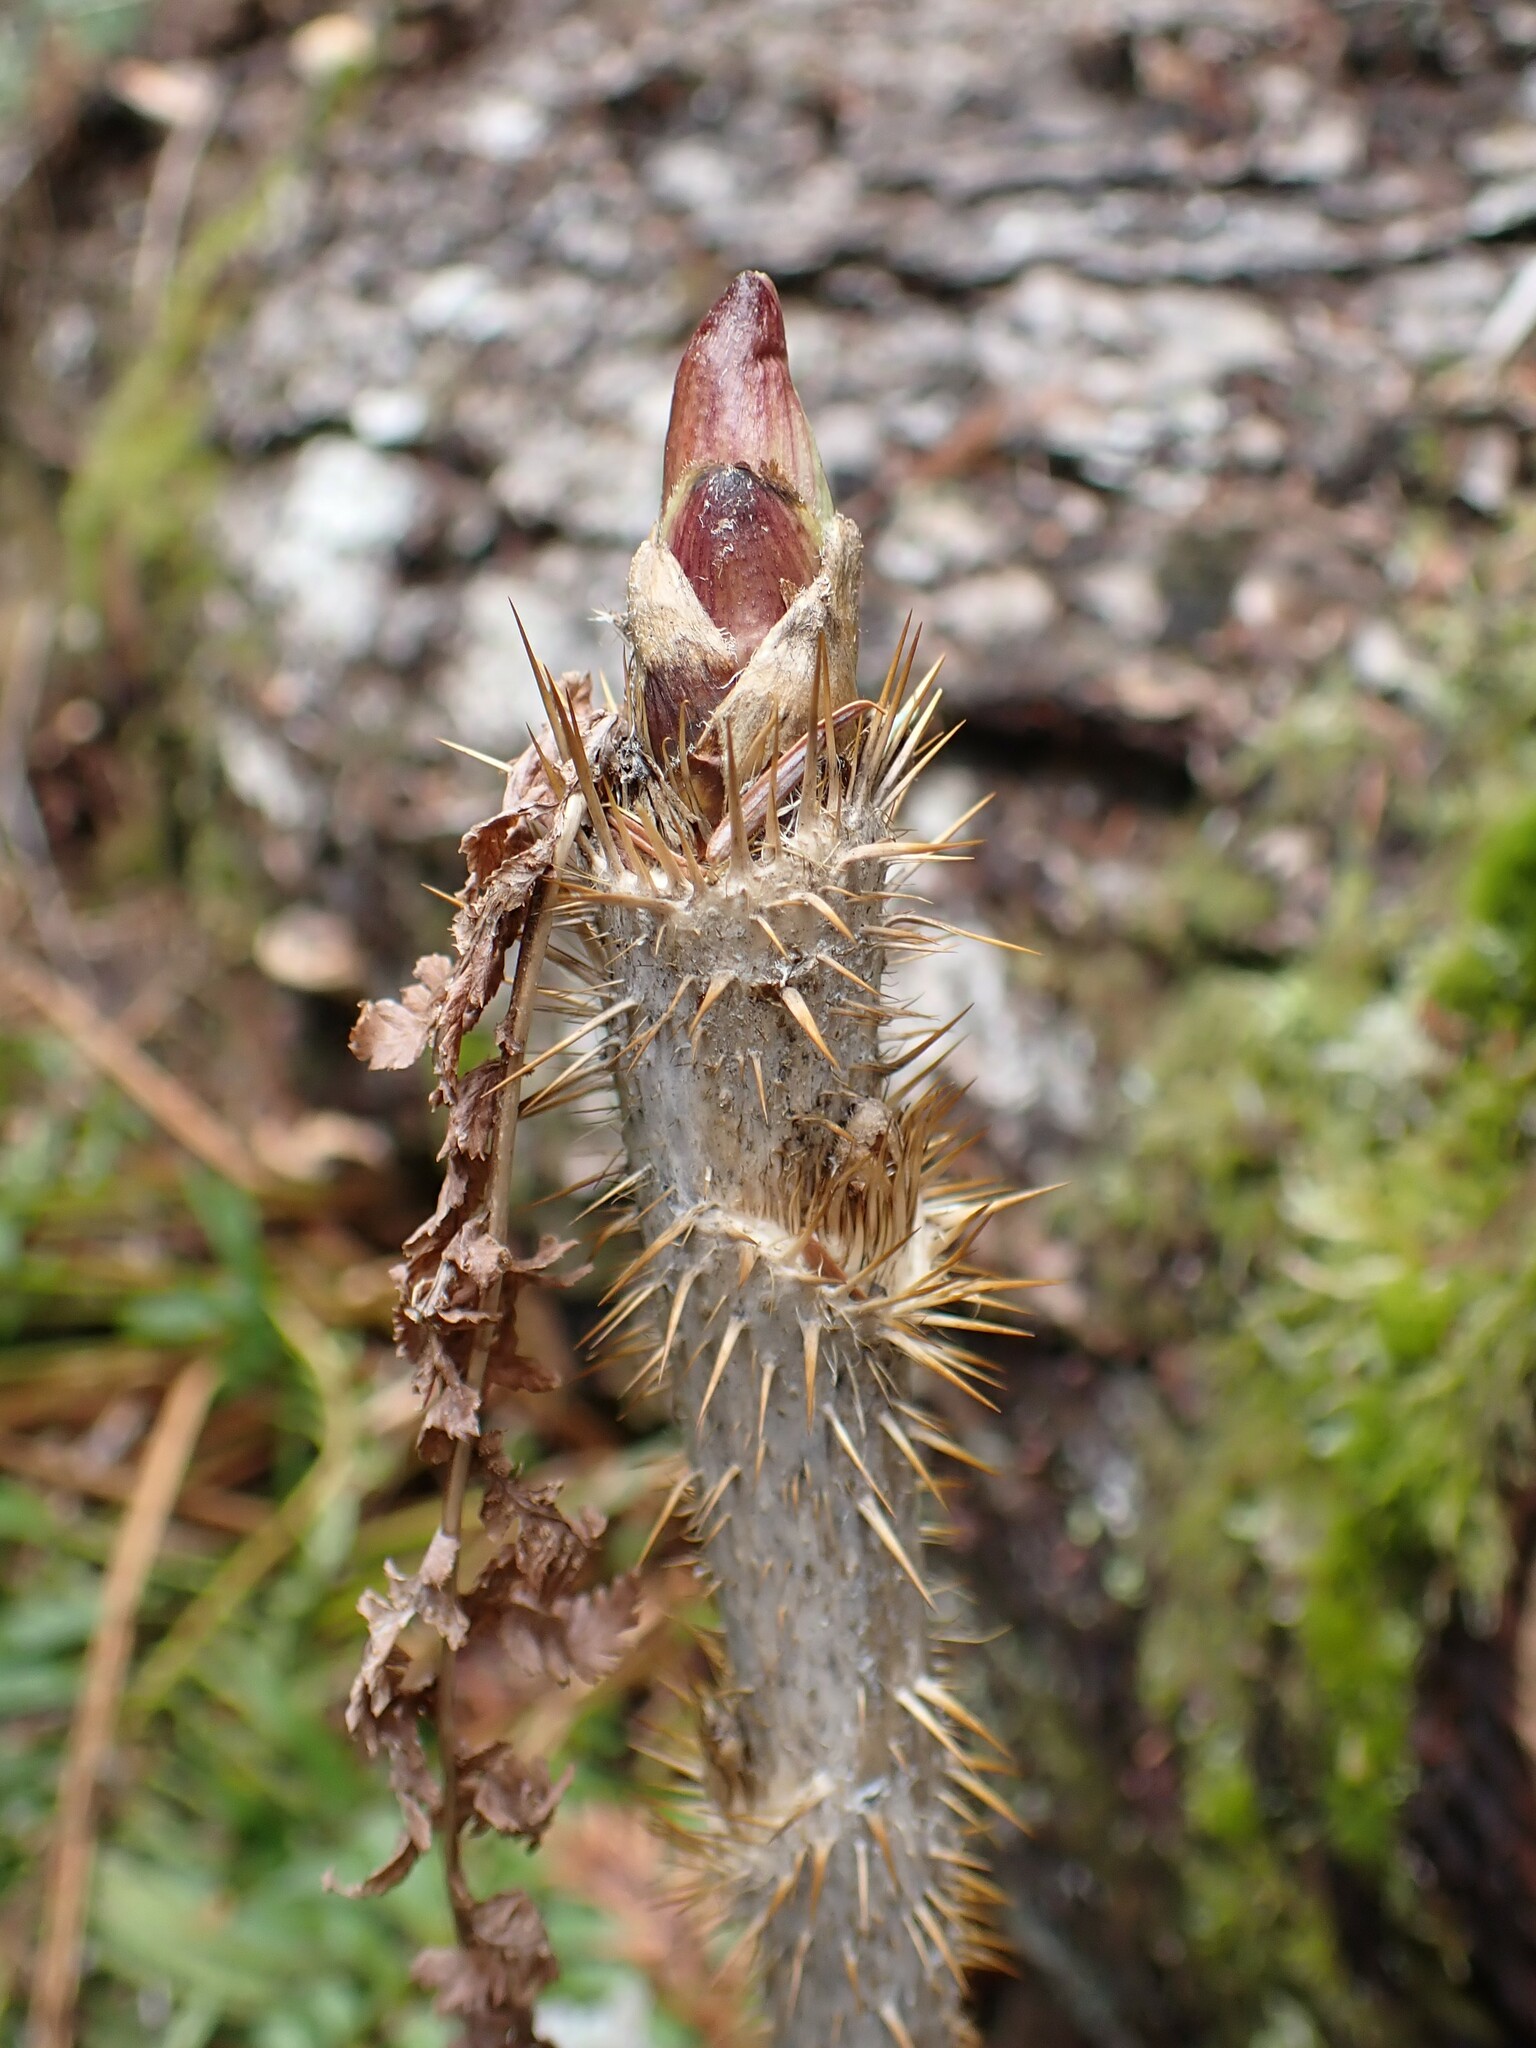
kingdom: Plantae
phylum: Tracheophyta
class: Magnoliopsida
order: Apiales
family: Araliaceae
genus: Oplopanax
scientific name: Oplopanax horridus
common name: Devil's walking-stick
